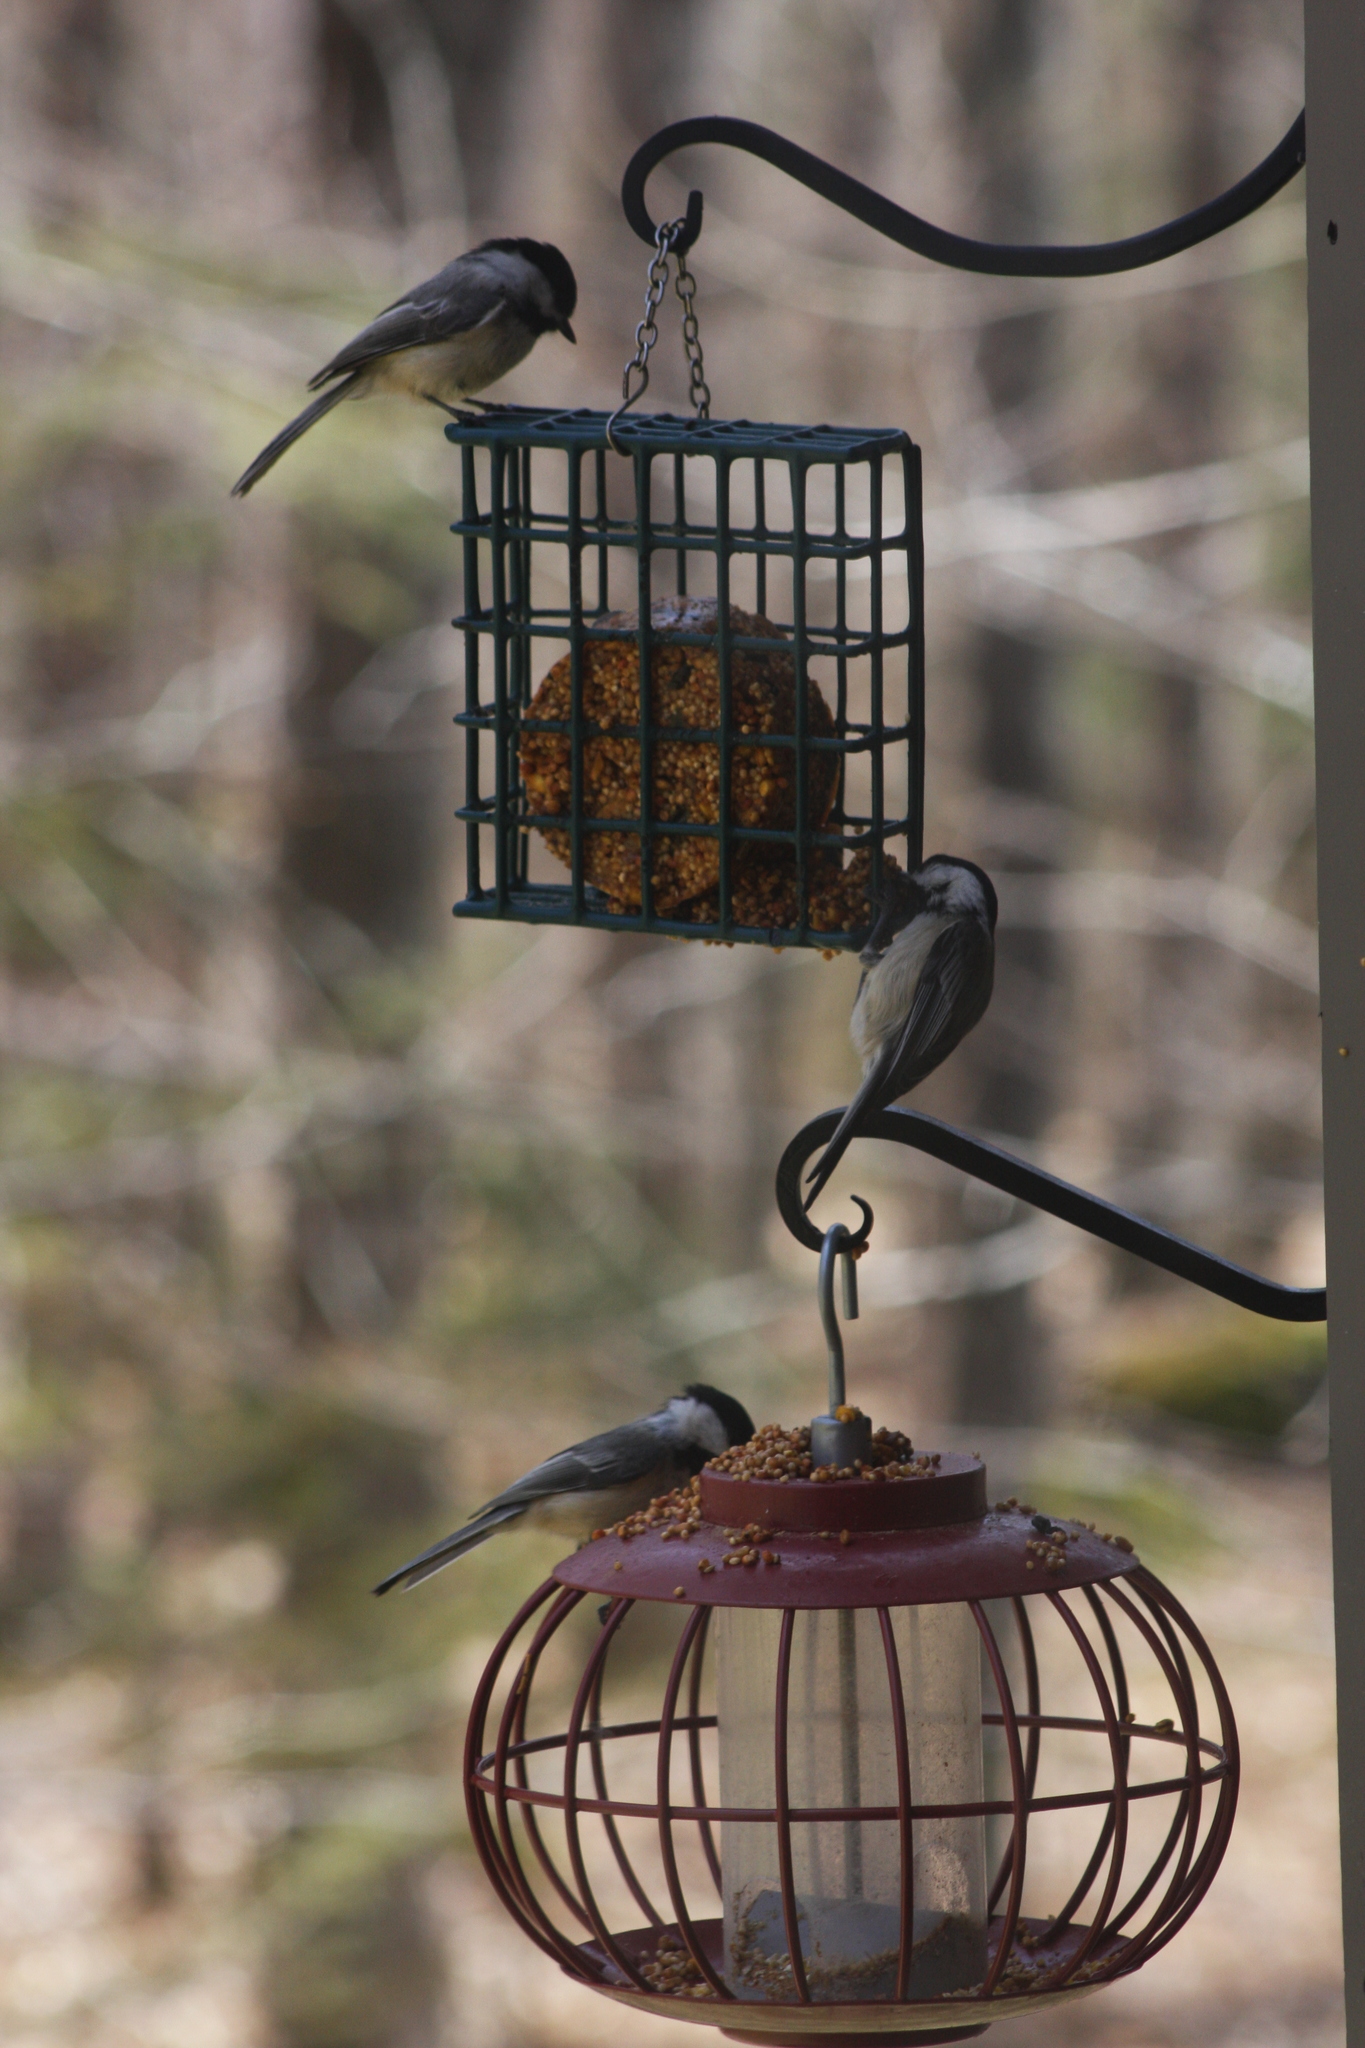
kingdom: Animalia
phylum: Chordata
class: Aves
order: Passeriformes
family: Paridae
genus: Poecile
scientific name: Poecile atricapillus
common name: Black-capped chickadee
